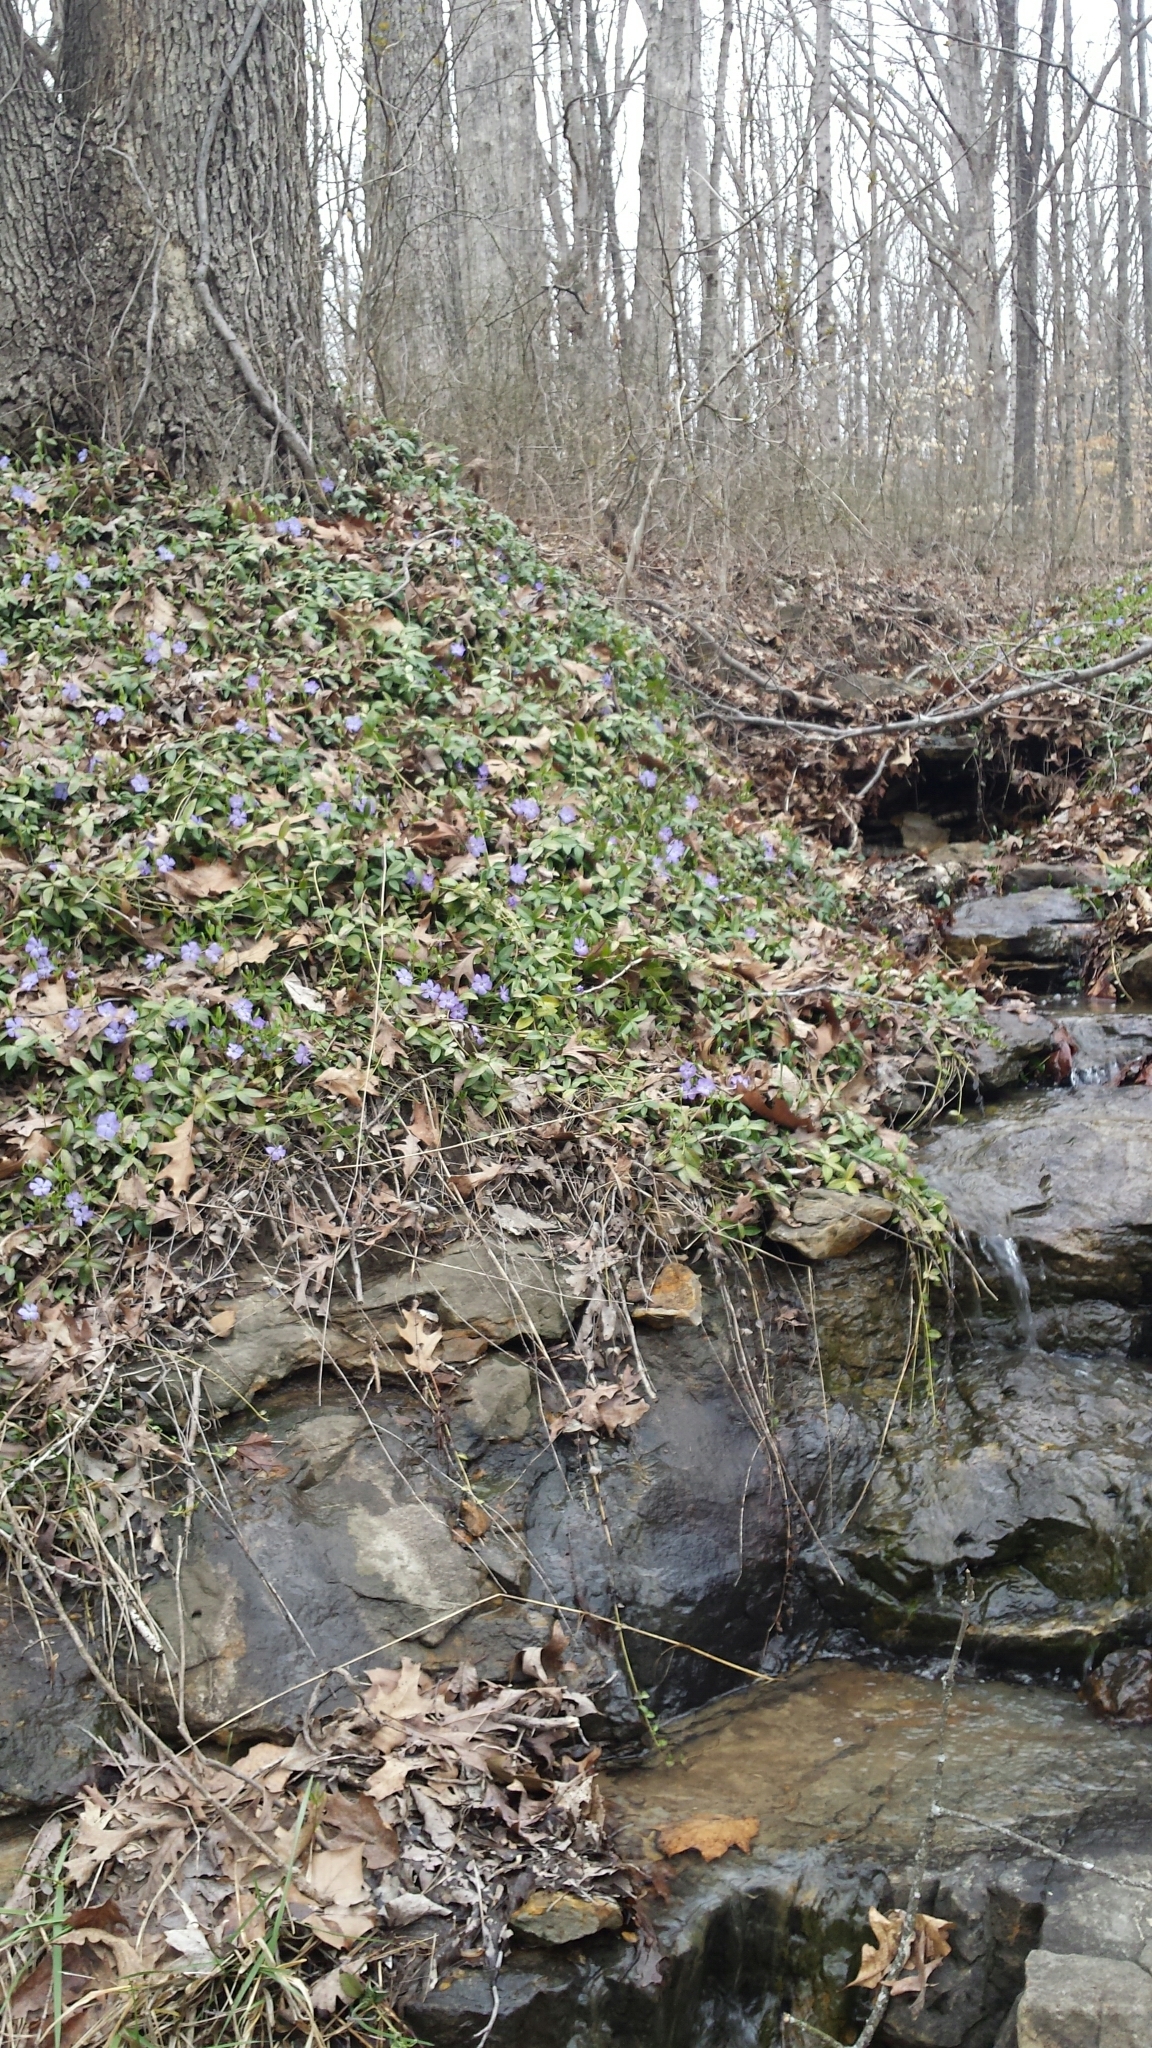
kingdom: Plantae
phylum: Tracheophyta
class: Magnoliopsida
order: Gentianales
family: Apocynaceae
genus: Vinca
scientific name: Vinca minor
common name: Lesser periwinkle
